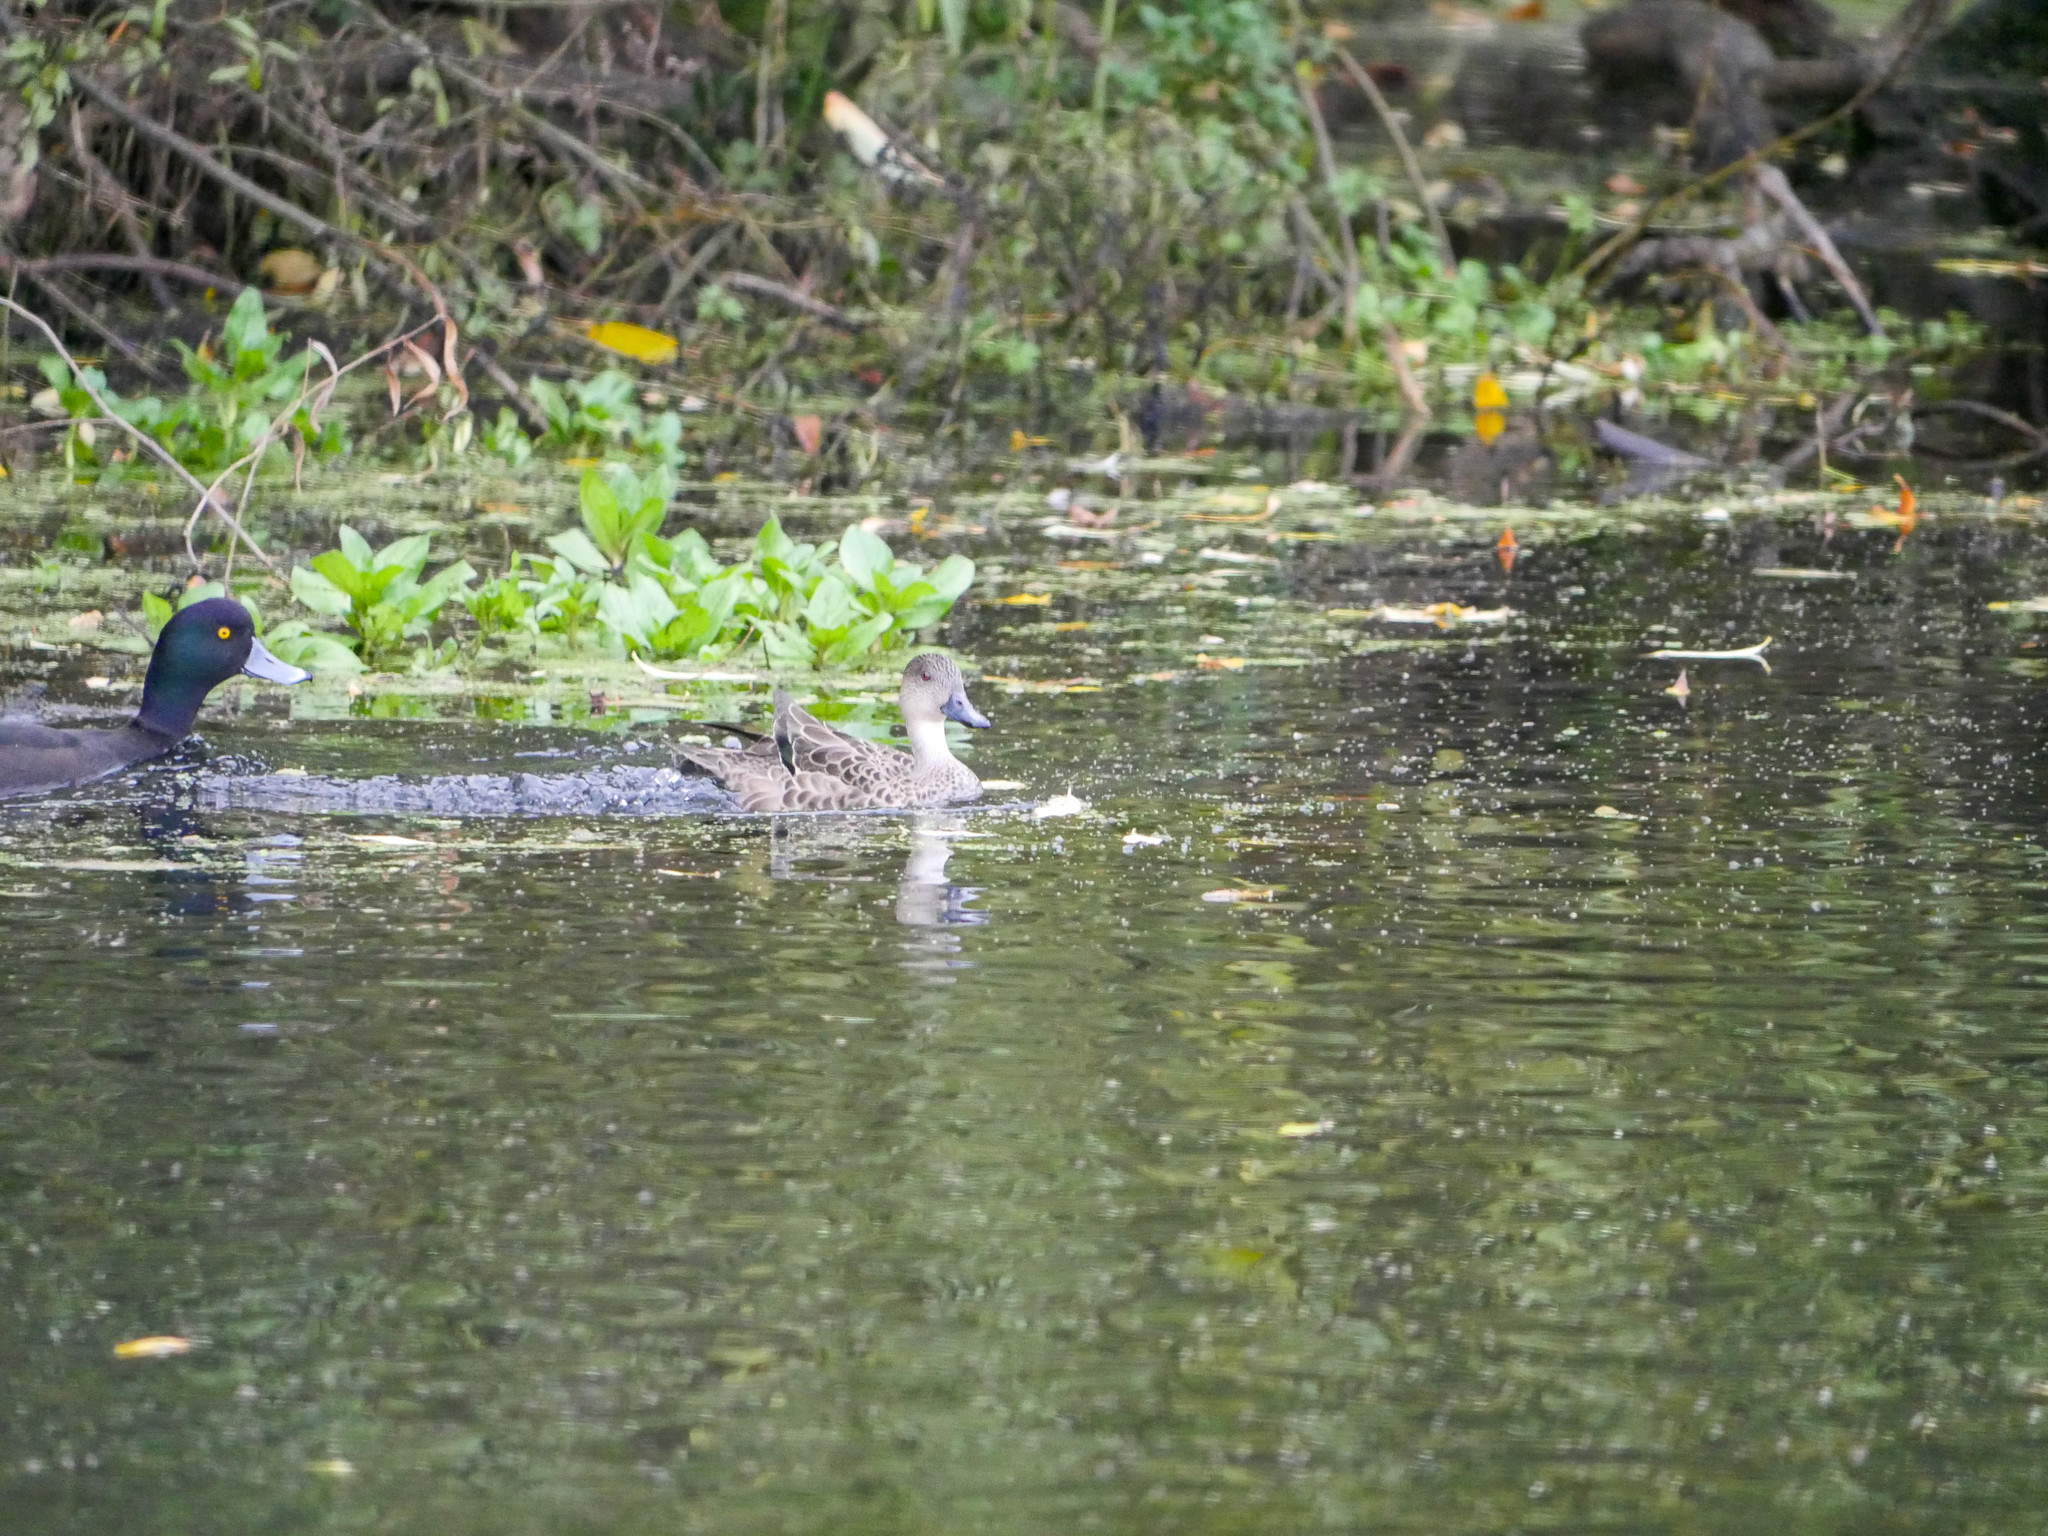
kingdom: Animalia
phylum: Chordata
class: Aves
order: Anseriformes
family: Anatidae
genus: Anas
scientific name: Anas gracilis
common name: Grey teal
